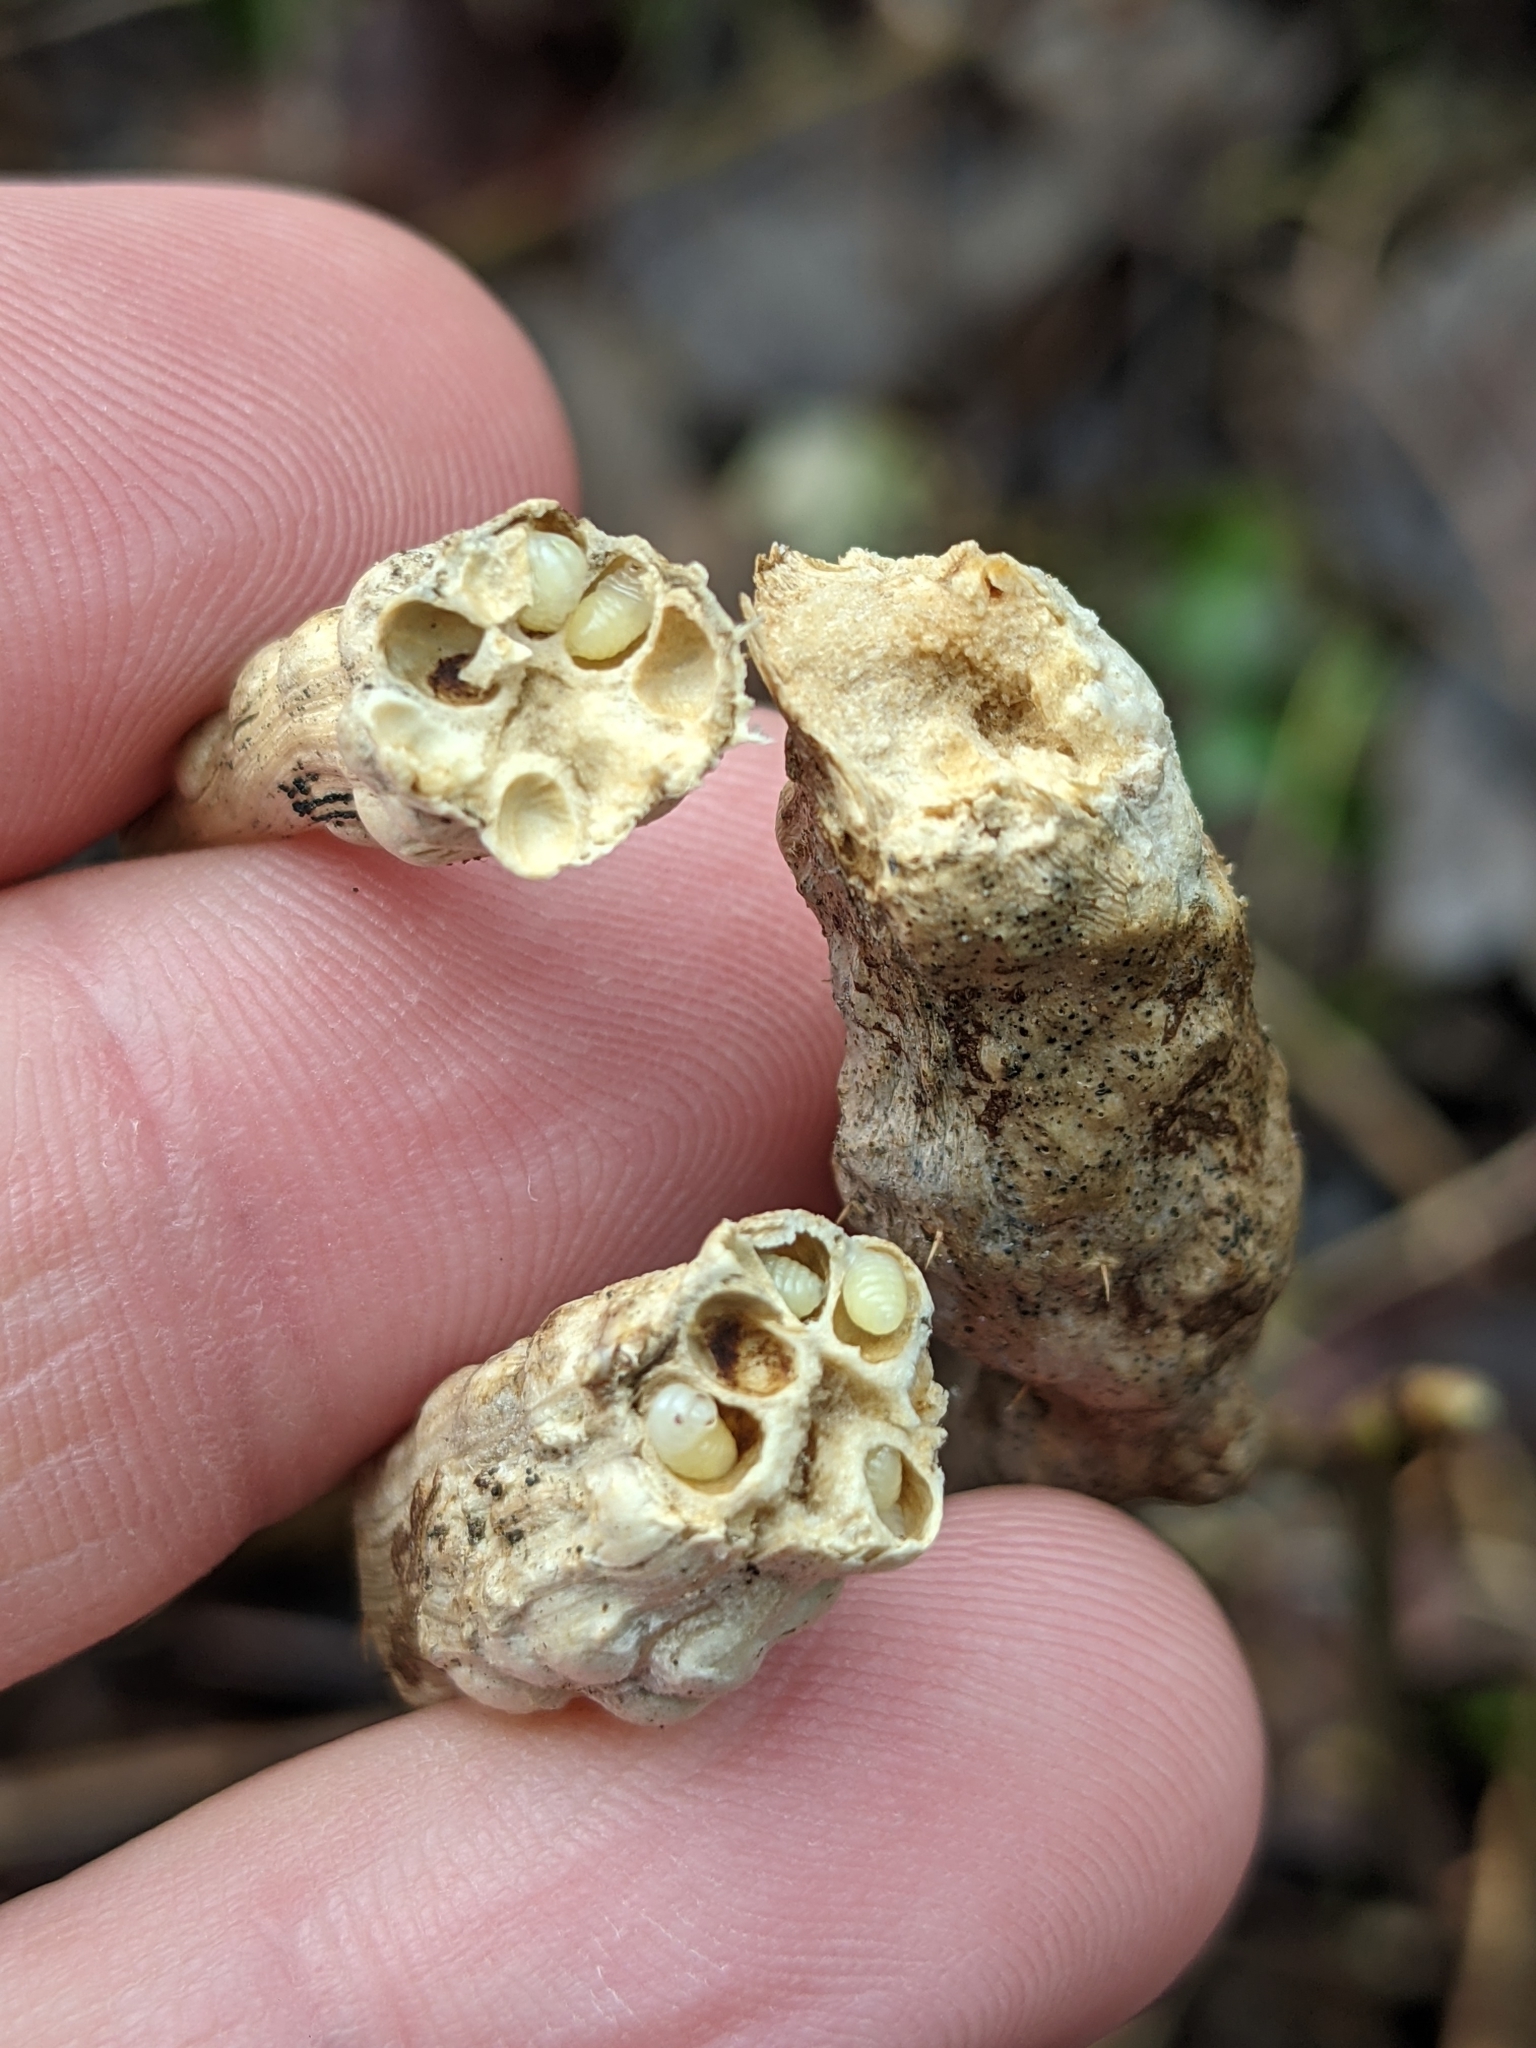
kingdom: Animalia
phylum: Arthropoda
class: Insecta
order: Hymenoptera
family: Cynipidae
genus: Diastrophus
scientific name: Diastrophus rubi
